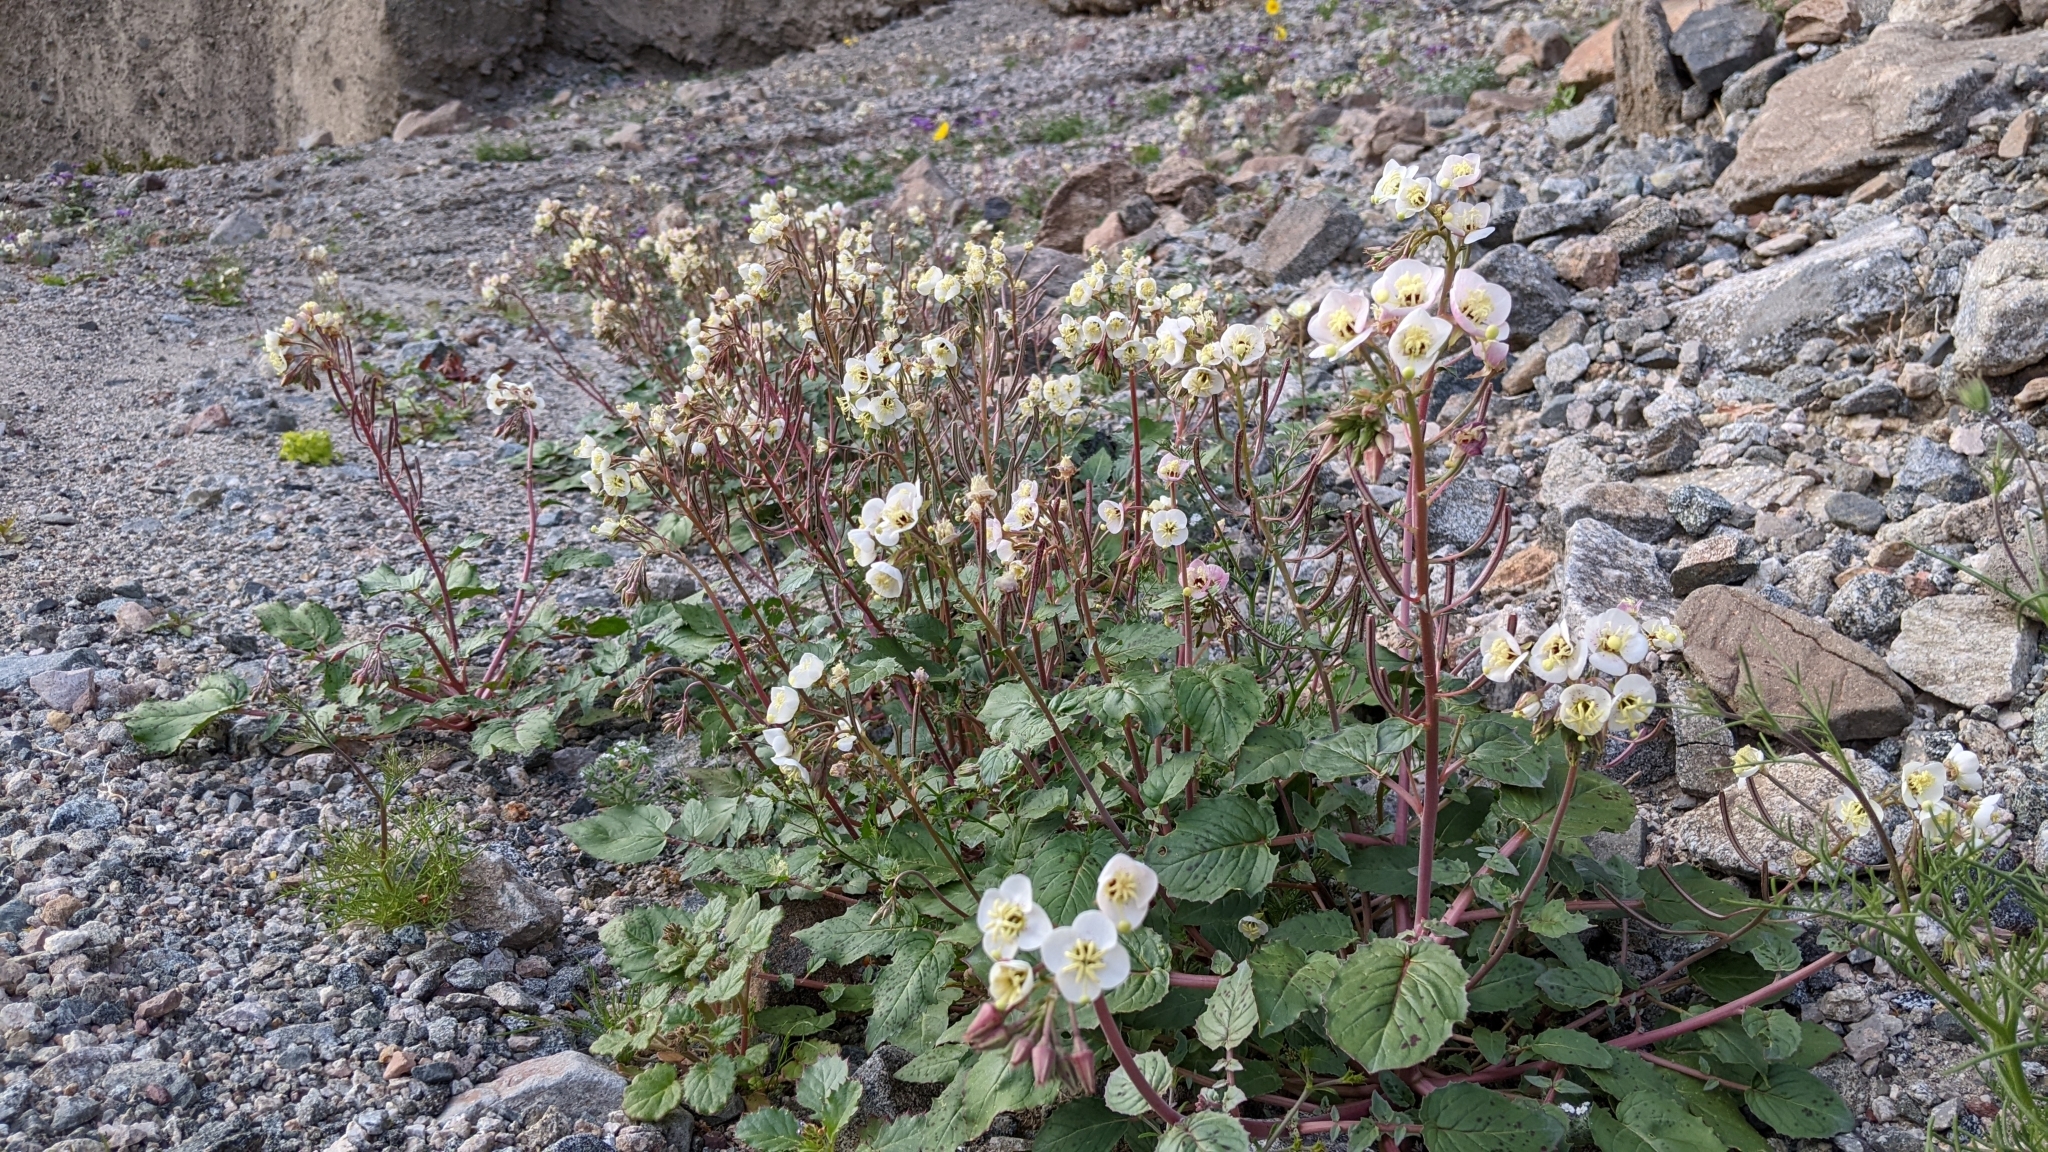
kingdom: Plantae
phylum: Tracheophyta
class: Magnoliopsida
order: Myrtales
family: Onagraceae
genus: Chylismia
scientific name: Chylismia claviformis
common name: Browneyes
